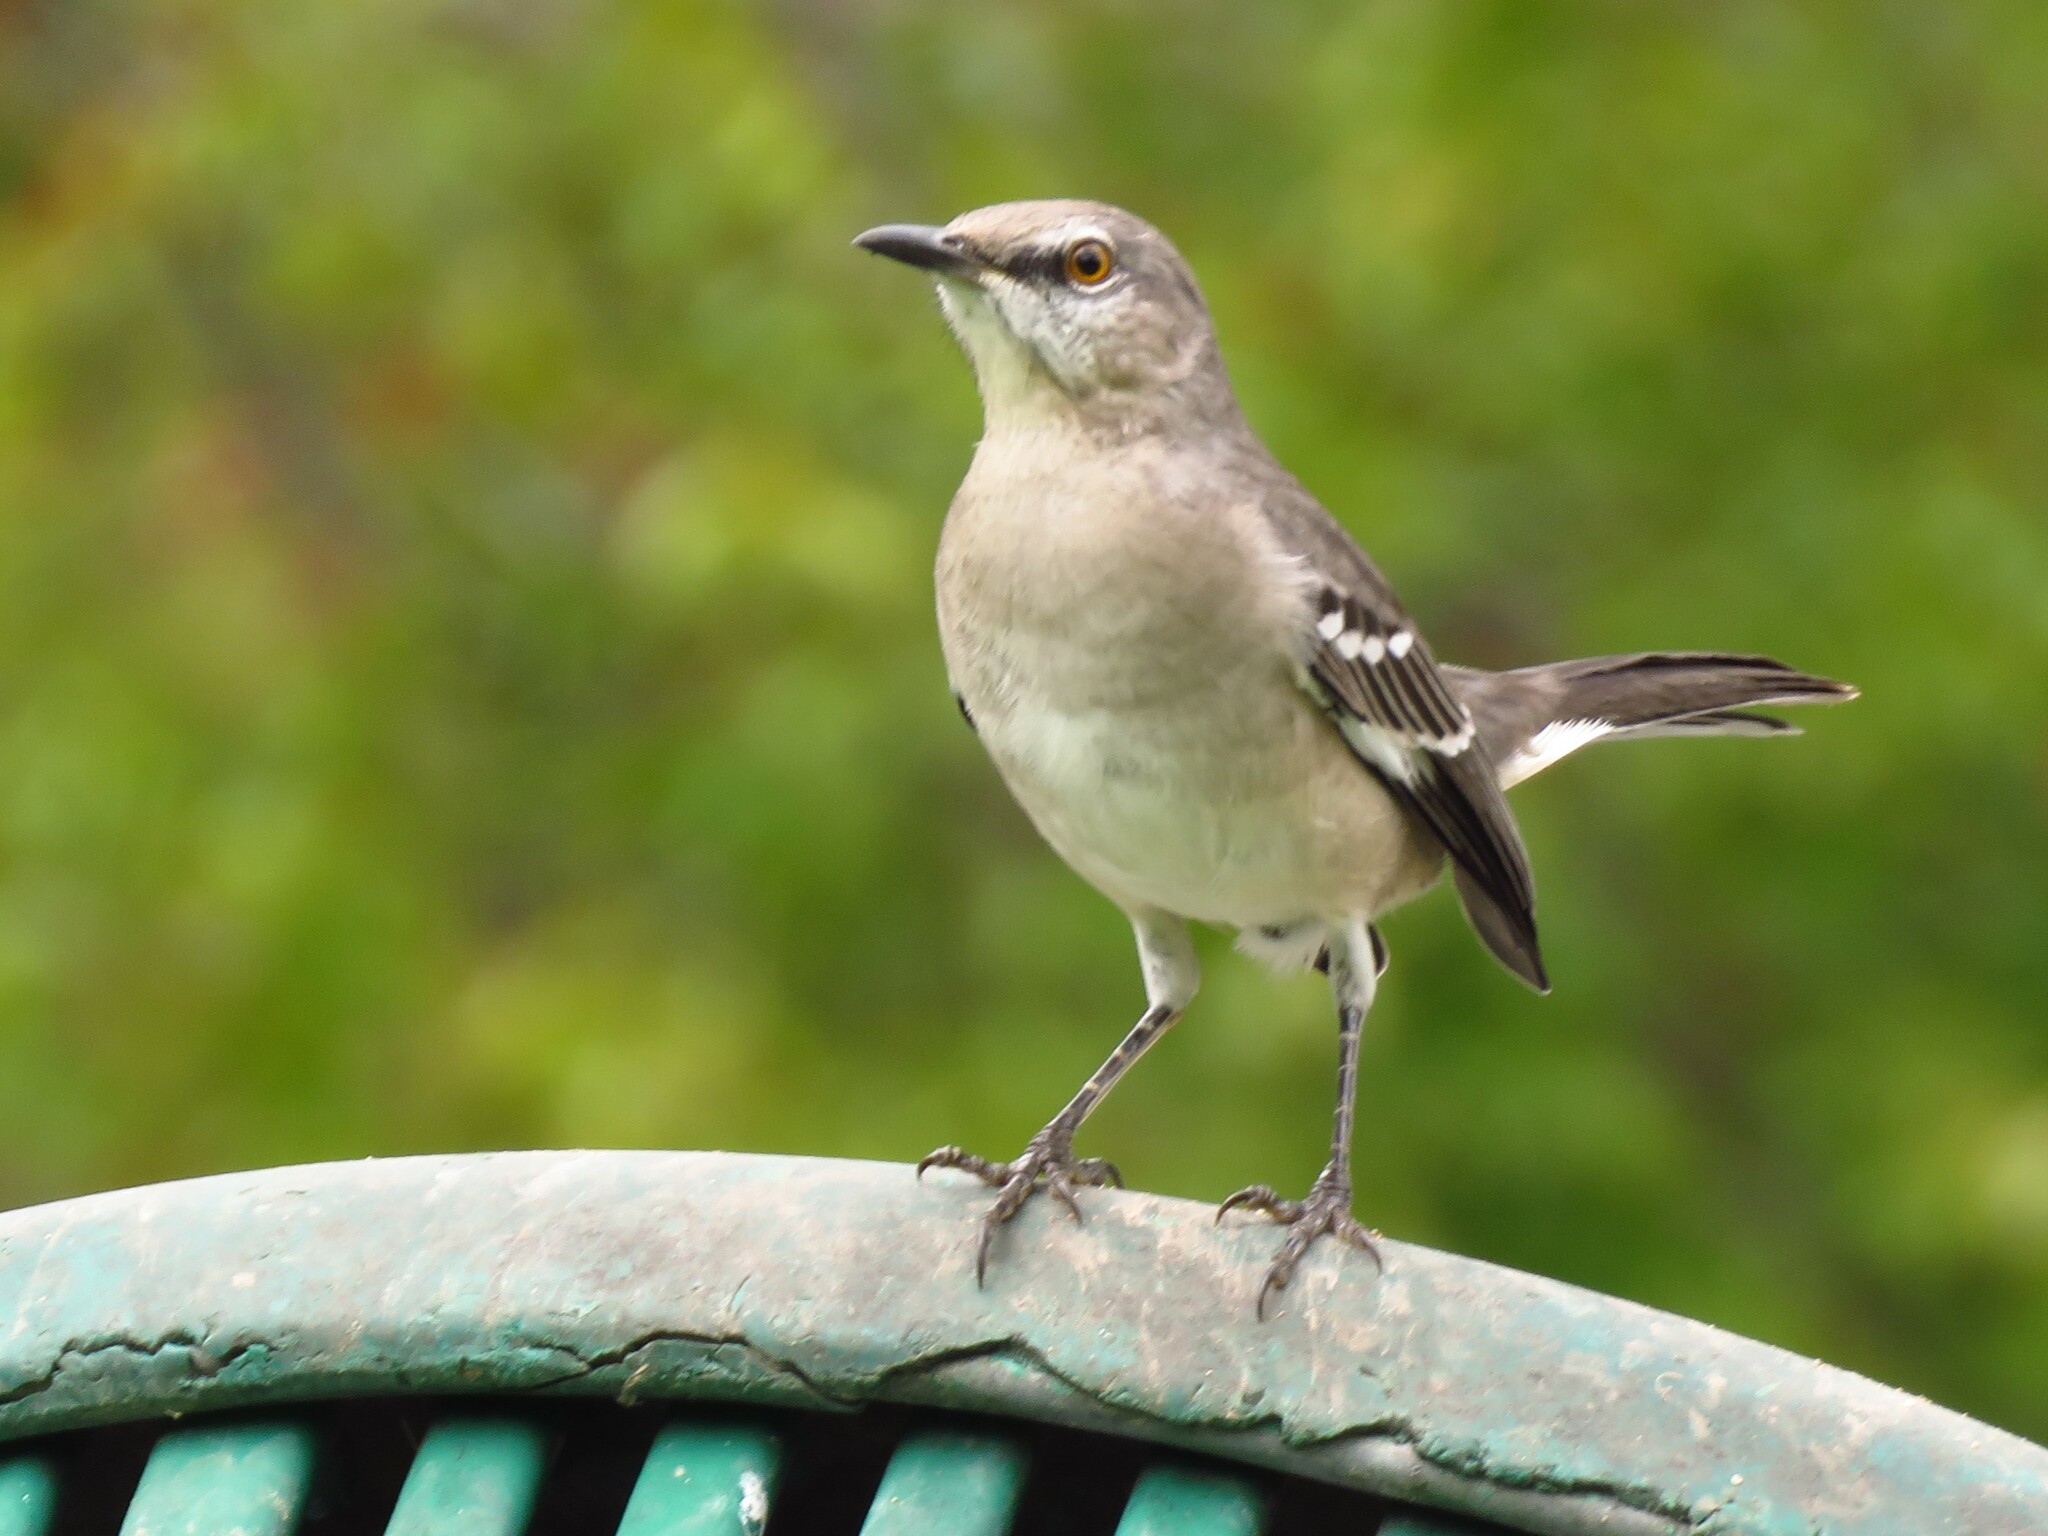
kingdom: Animalia
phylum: Chordata
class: Aves
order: Passeriformes
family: Mimidae
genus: Mimus
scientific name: Mimus polyglottos
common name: Northern mockingbird
